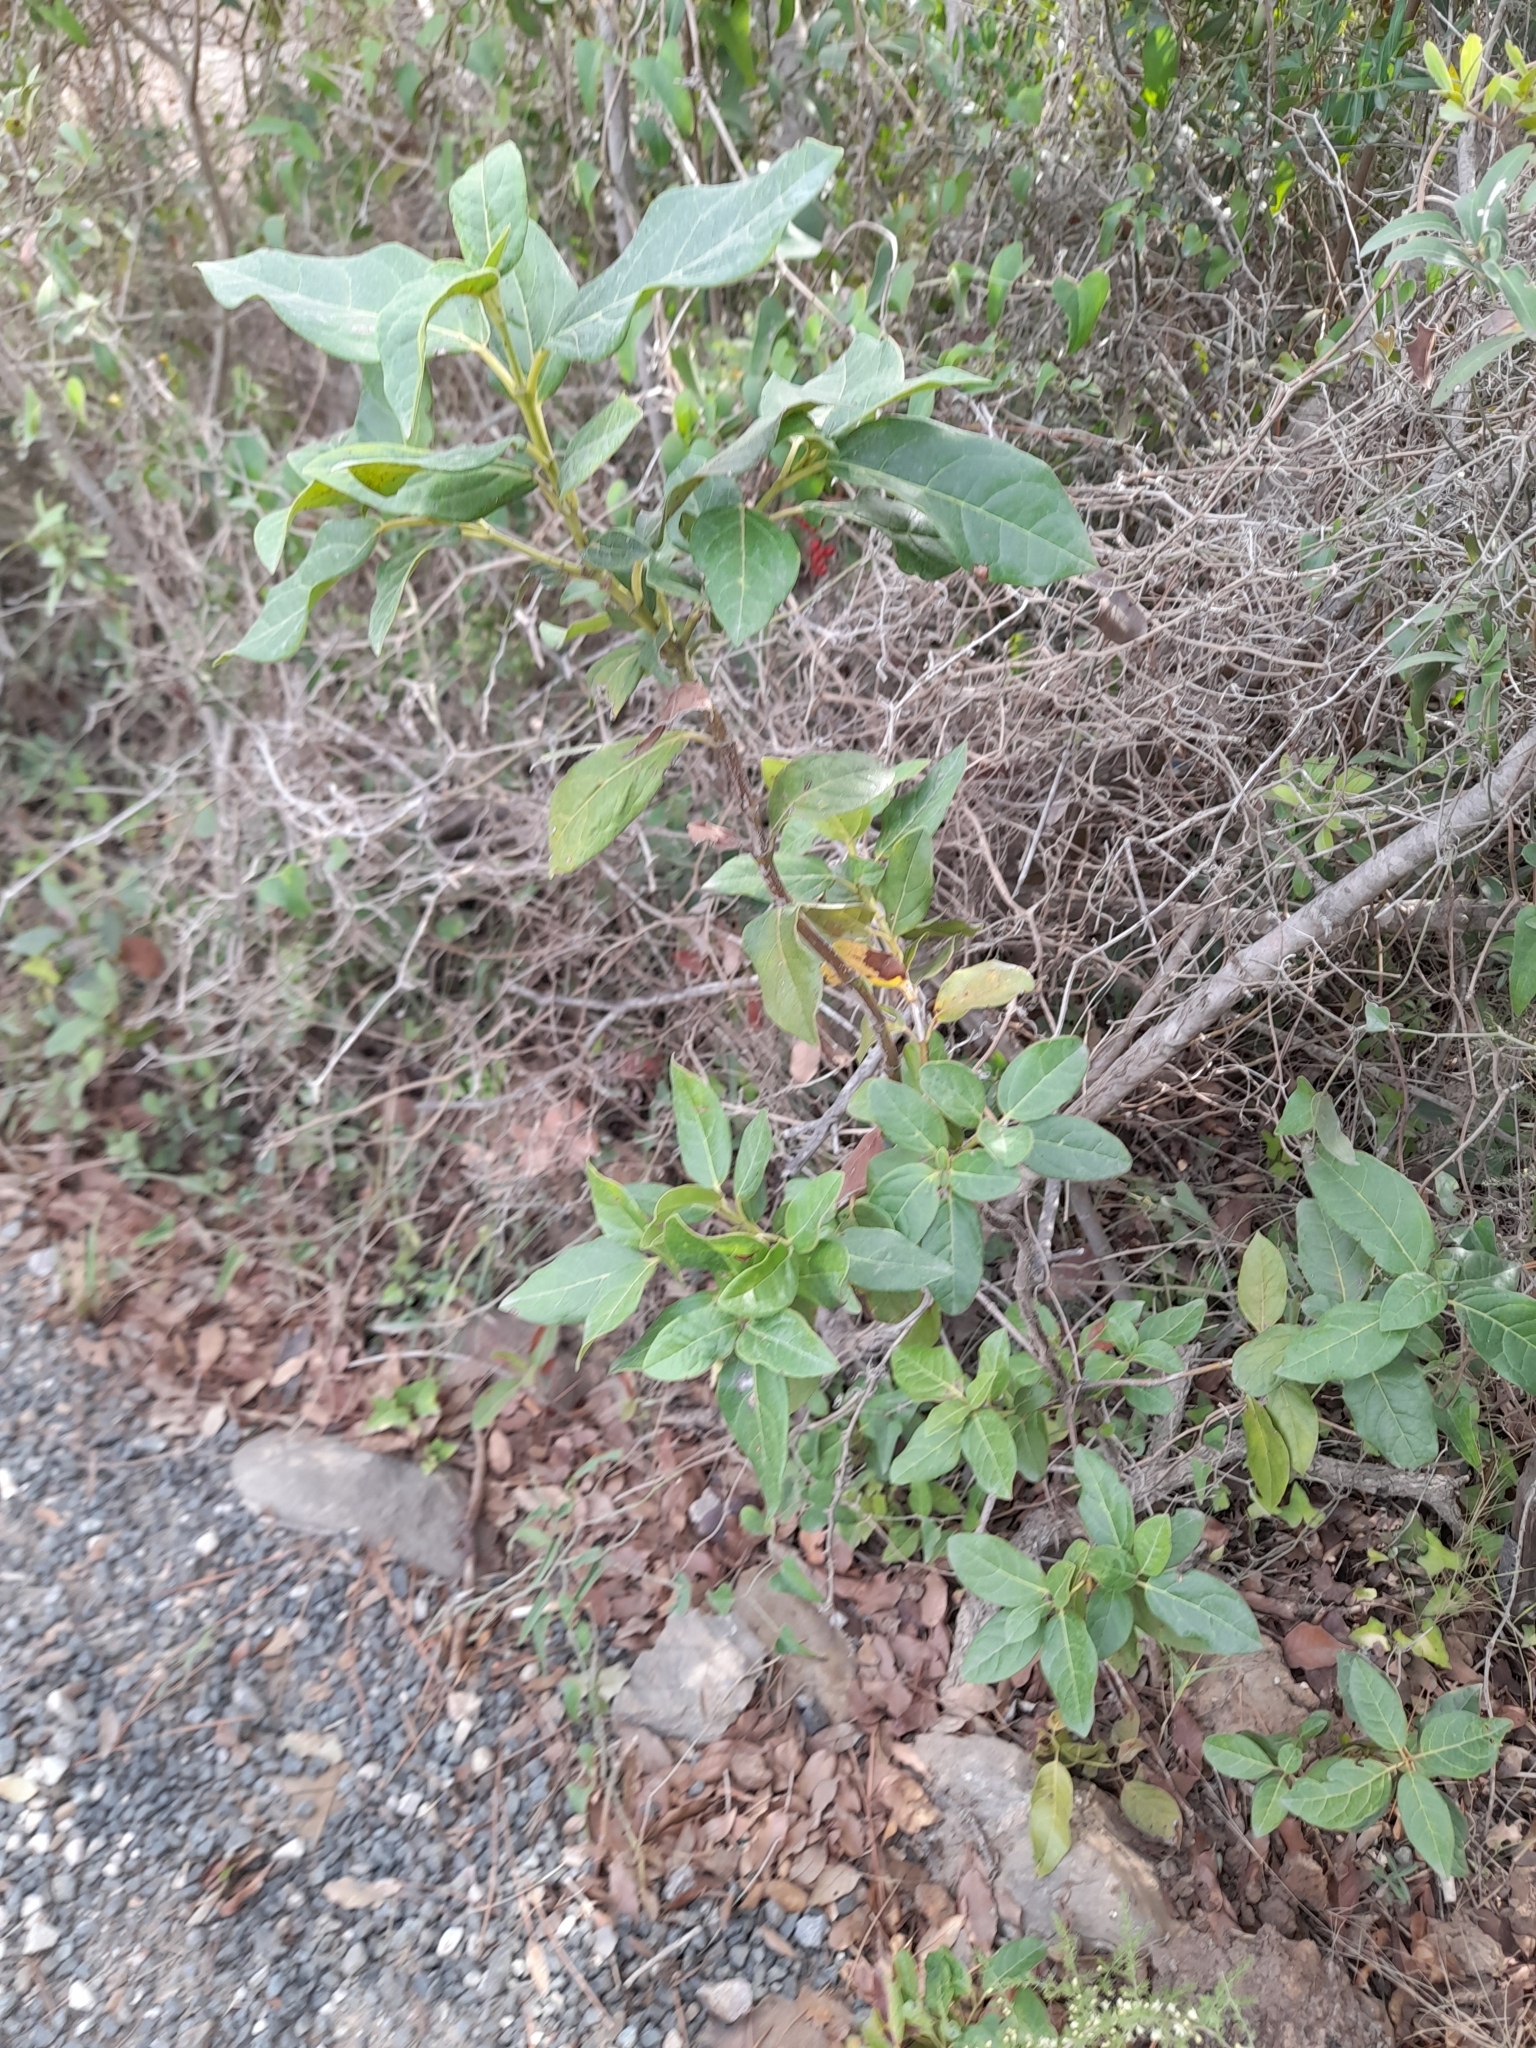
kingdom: Plantae
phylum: Tracheophyta
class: Magnoliopsida
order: Dipsacales
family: Viburnaceae
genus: Viburnum
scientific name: Viburnum tinus
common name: Laurustinus
